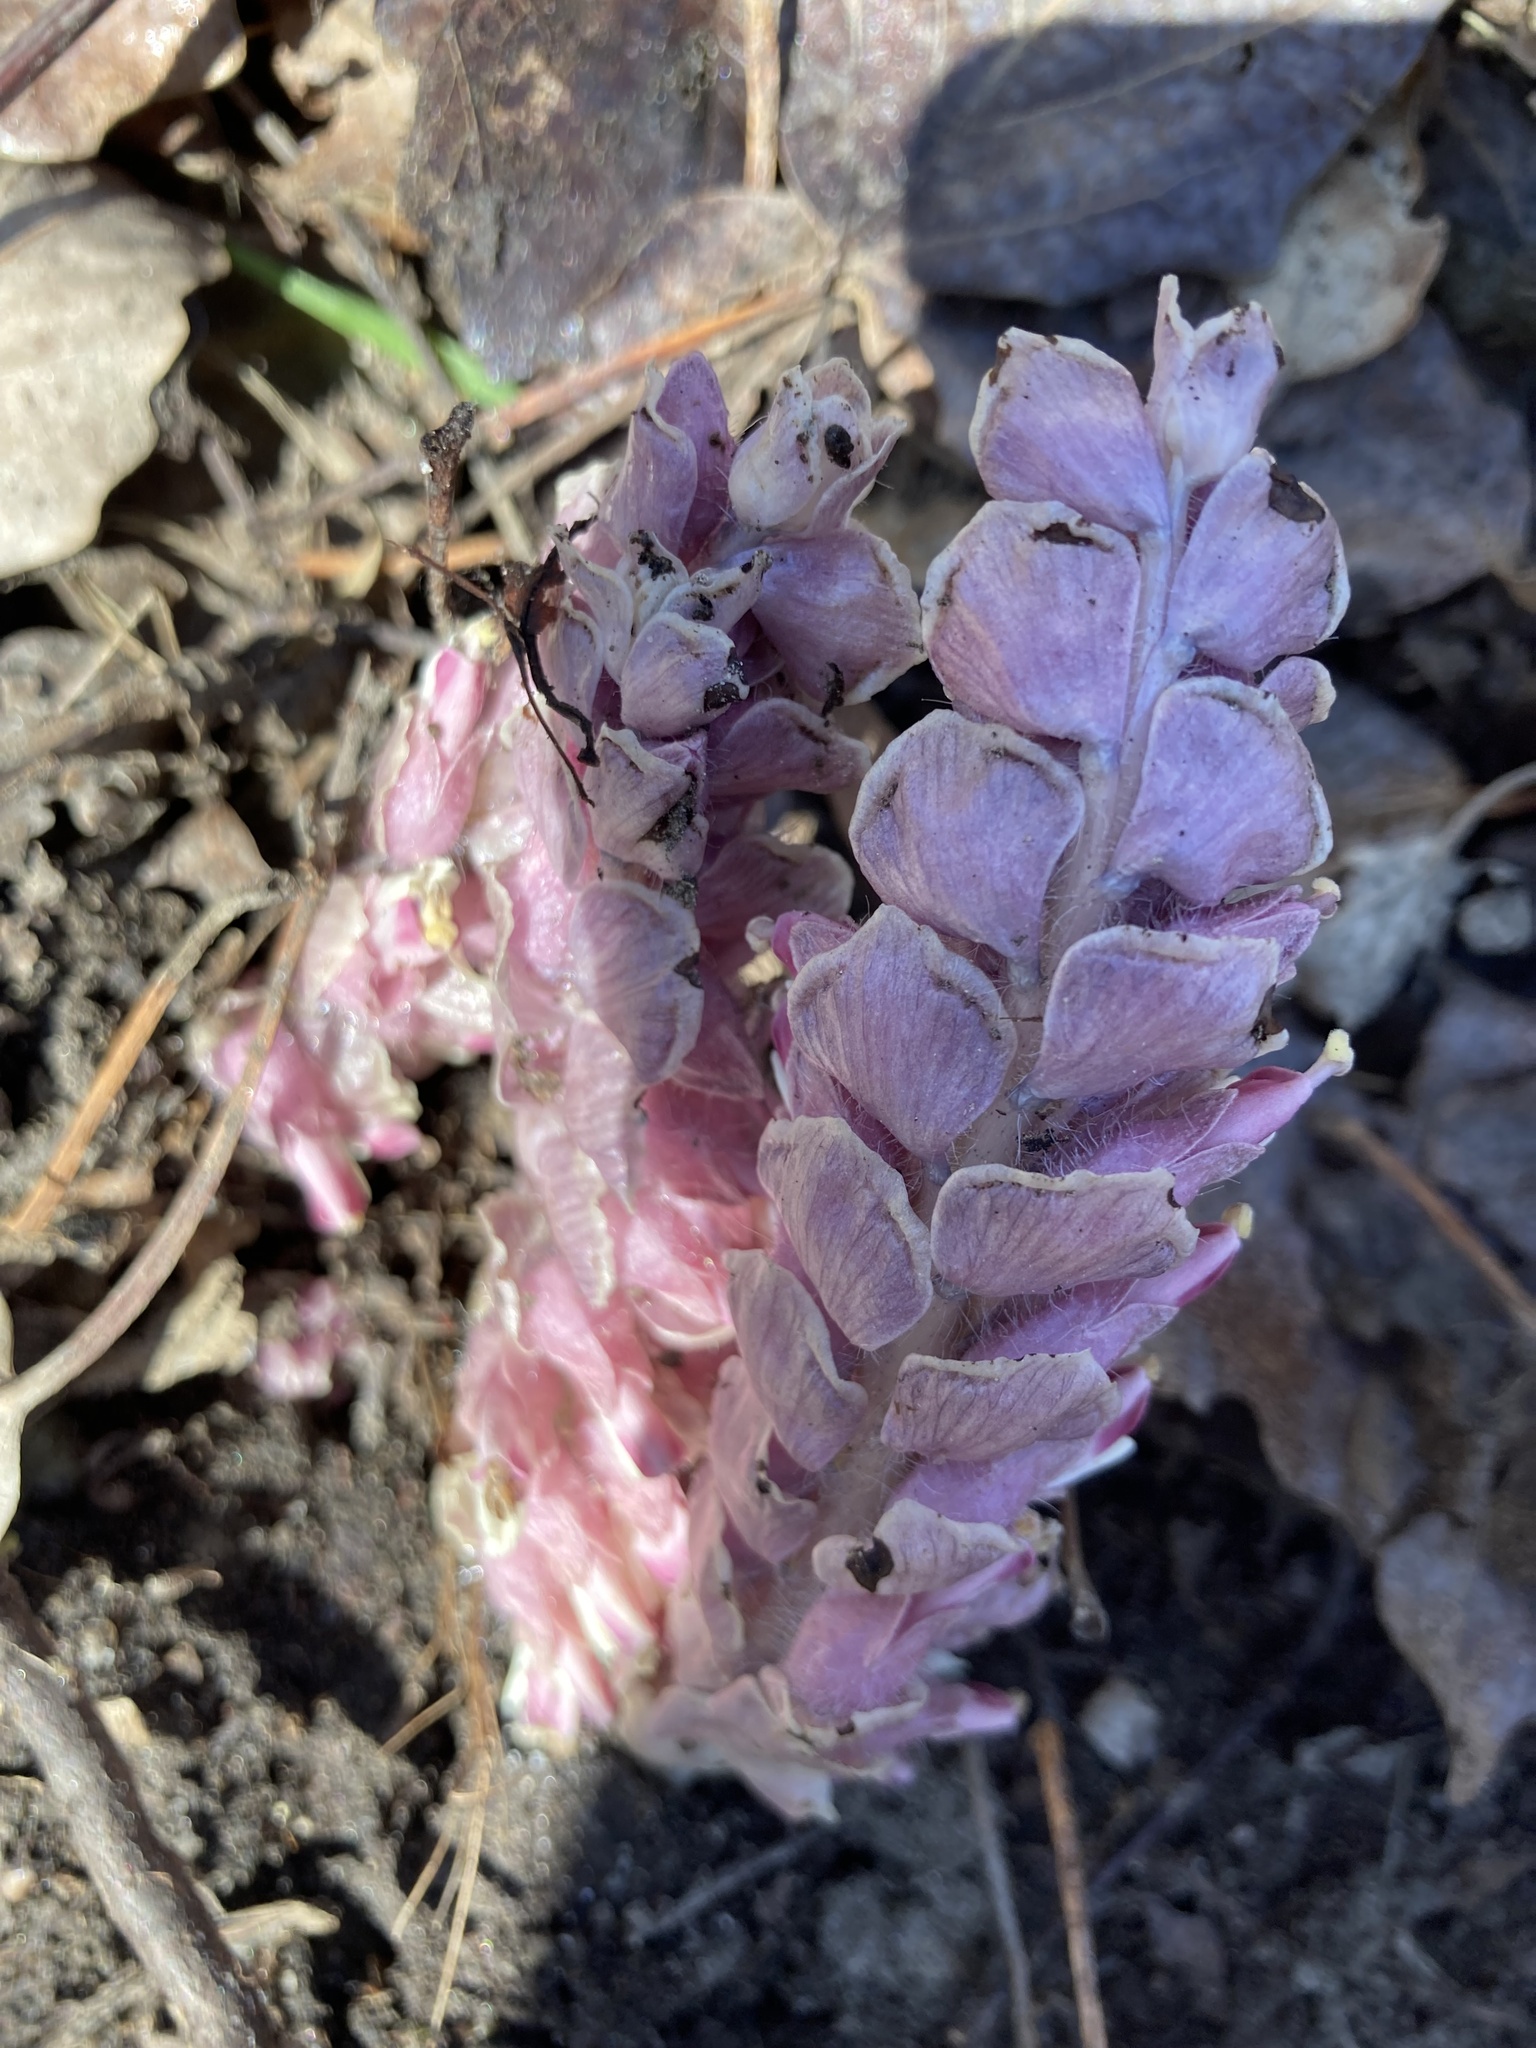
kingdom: Plantae
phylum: Tracheophyta
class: Magnoliopsida
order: Lamiales
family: Orobanchaceae
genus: Lathraea
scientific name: Lathraea squamaria
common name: Toothwort
